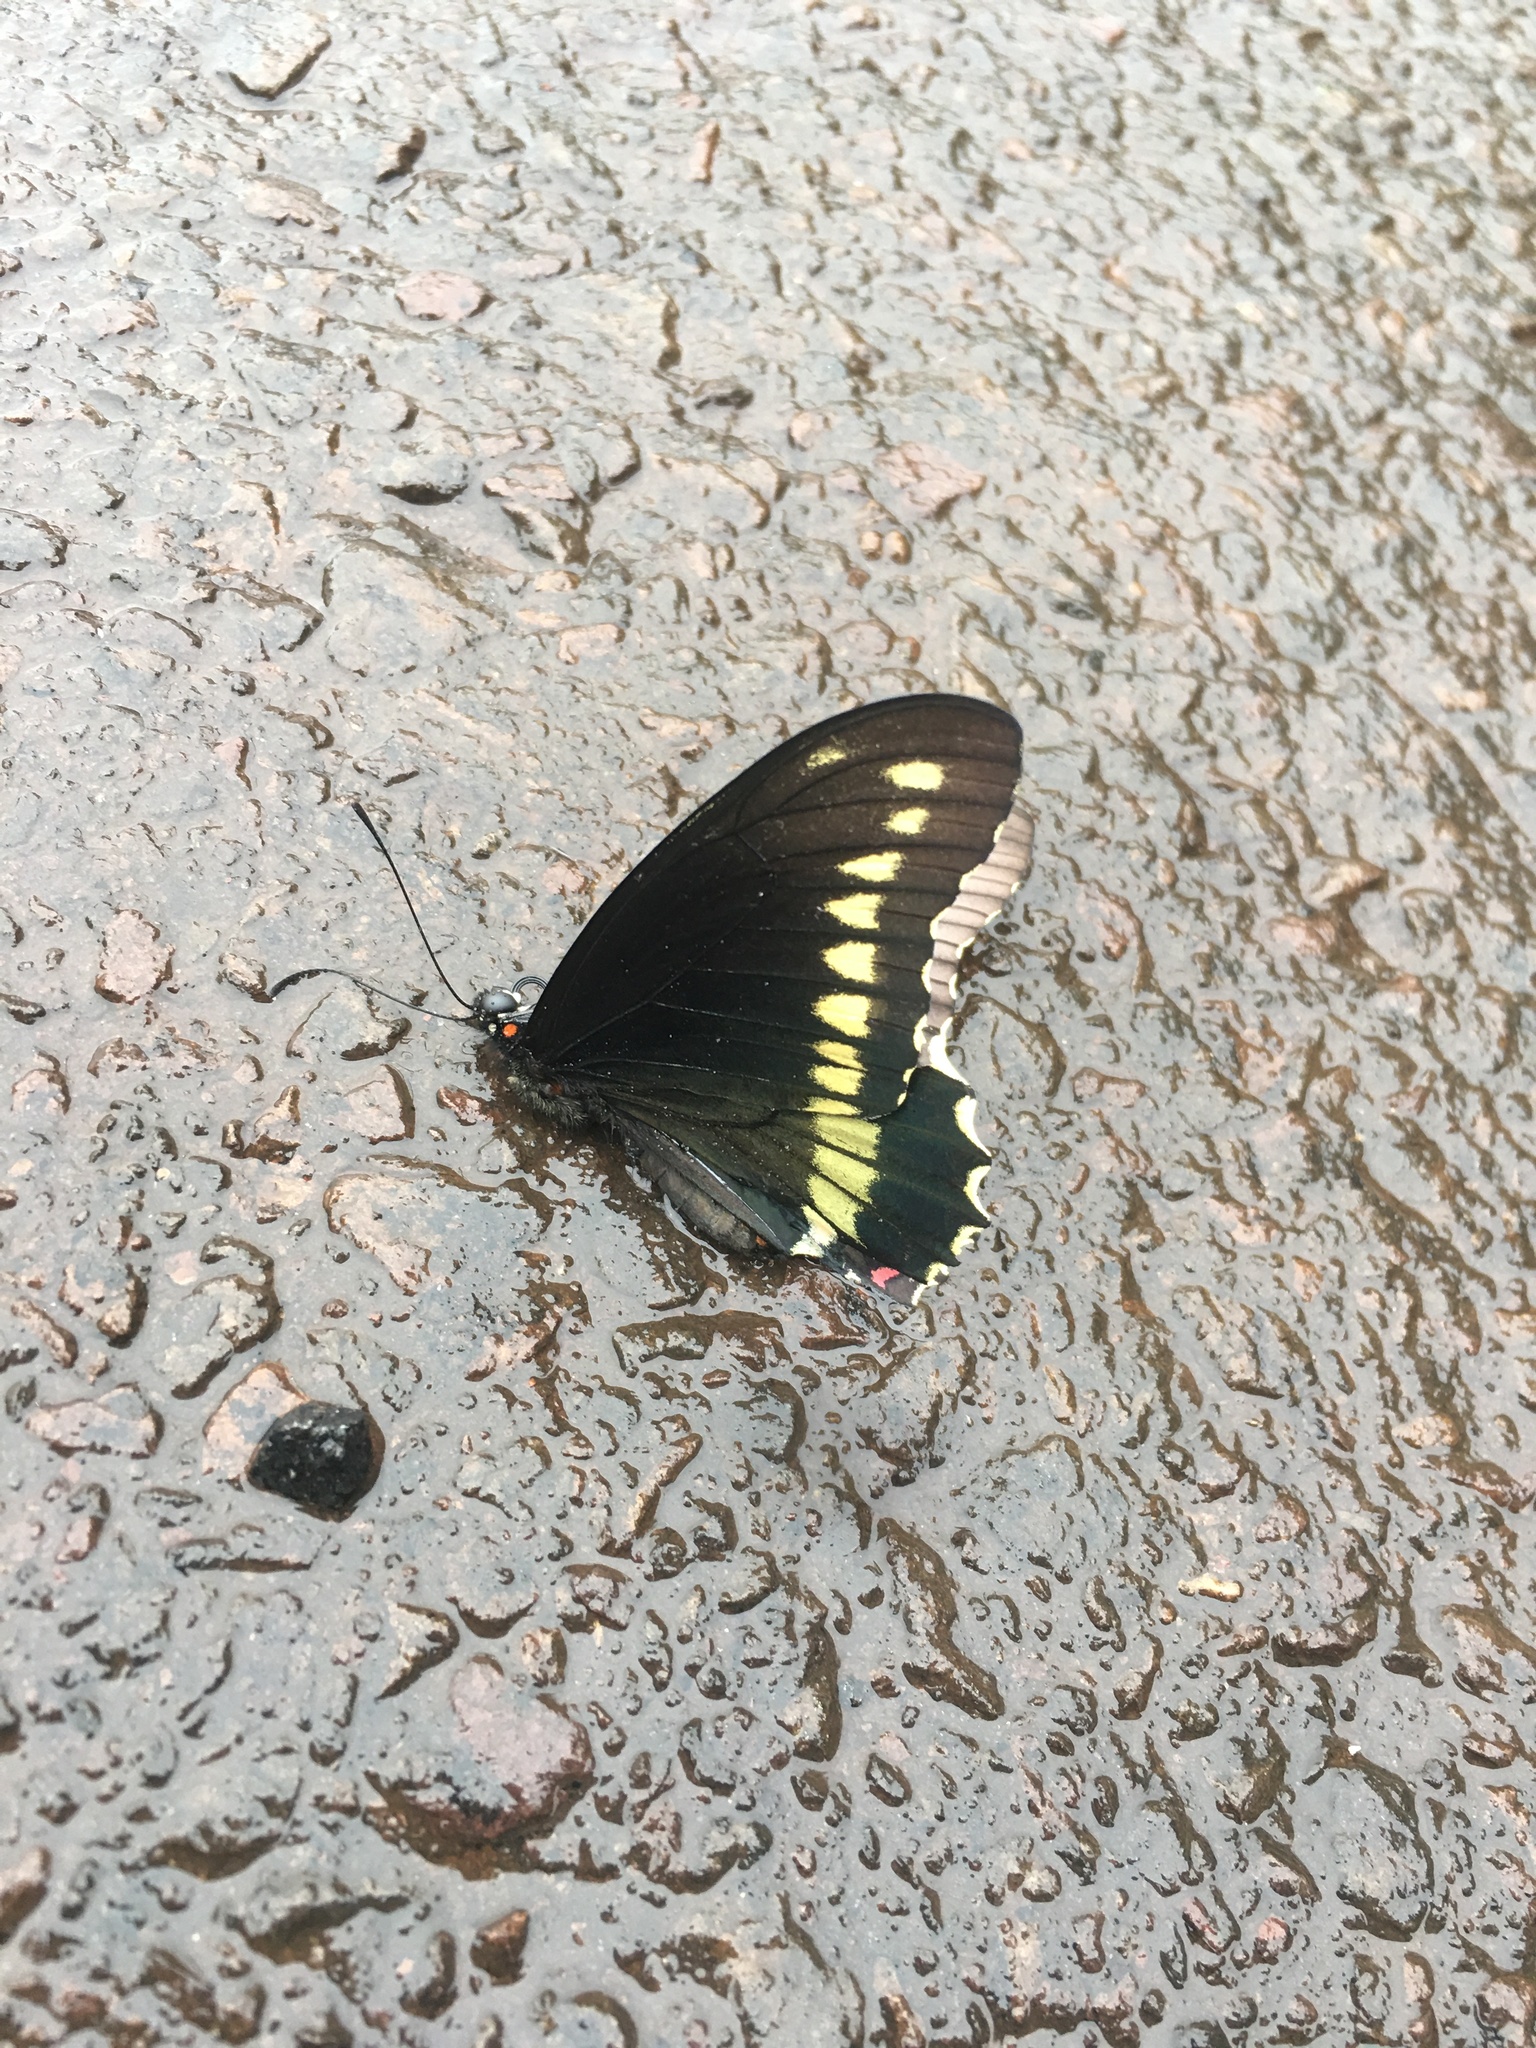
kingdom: Animalia
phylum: Arthropoda
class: Insecta
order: Lepidoptera
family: Papilionidae
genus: Battus
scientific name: Battus polydamas
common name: Polydamas swallowtail
